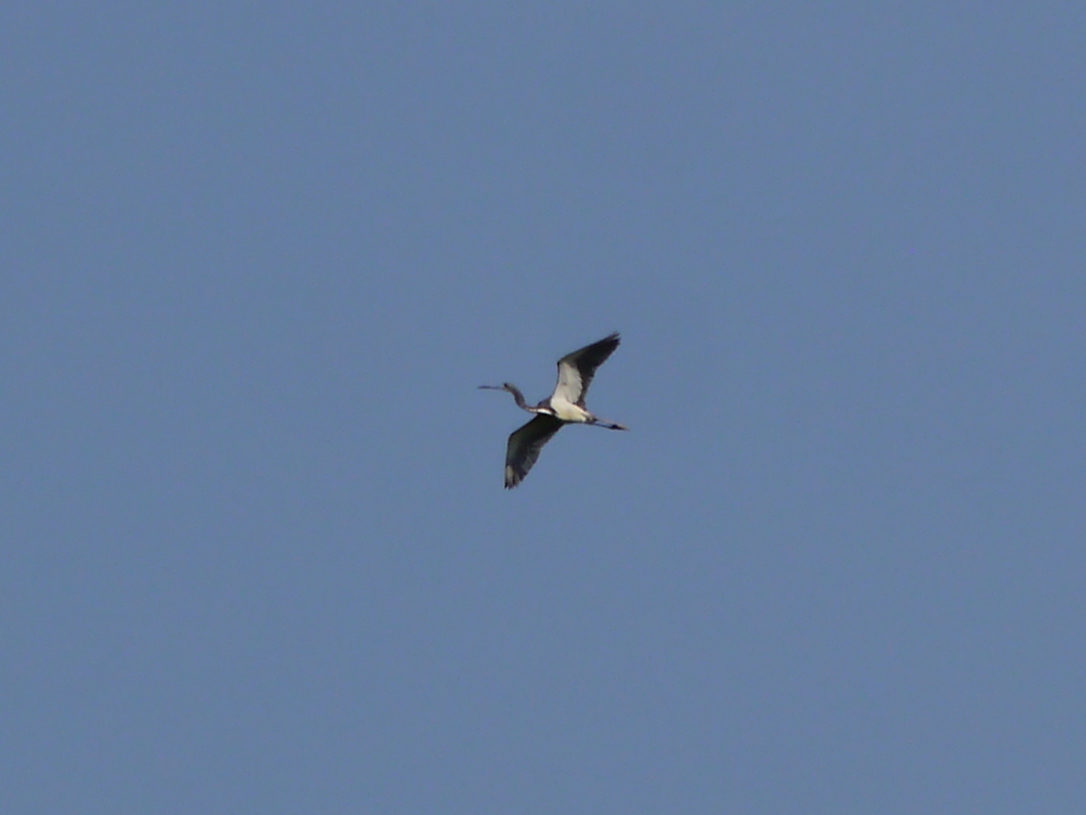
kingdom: Animalia
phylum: Chordata
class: Aves
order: Pelecaniformes
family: Ardeidae
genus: Egretta
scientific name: Egretta tricolor
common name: Tricolored heron
